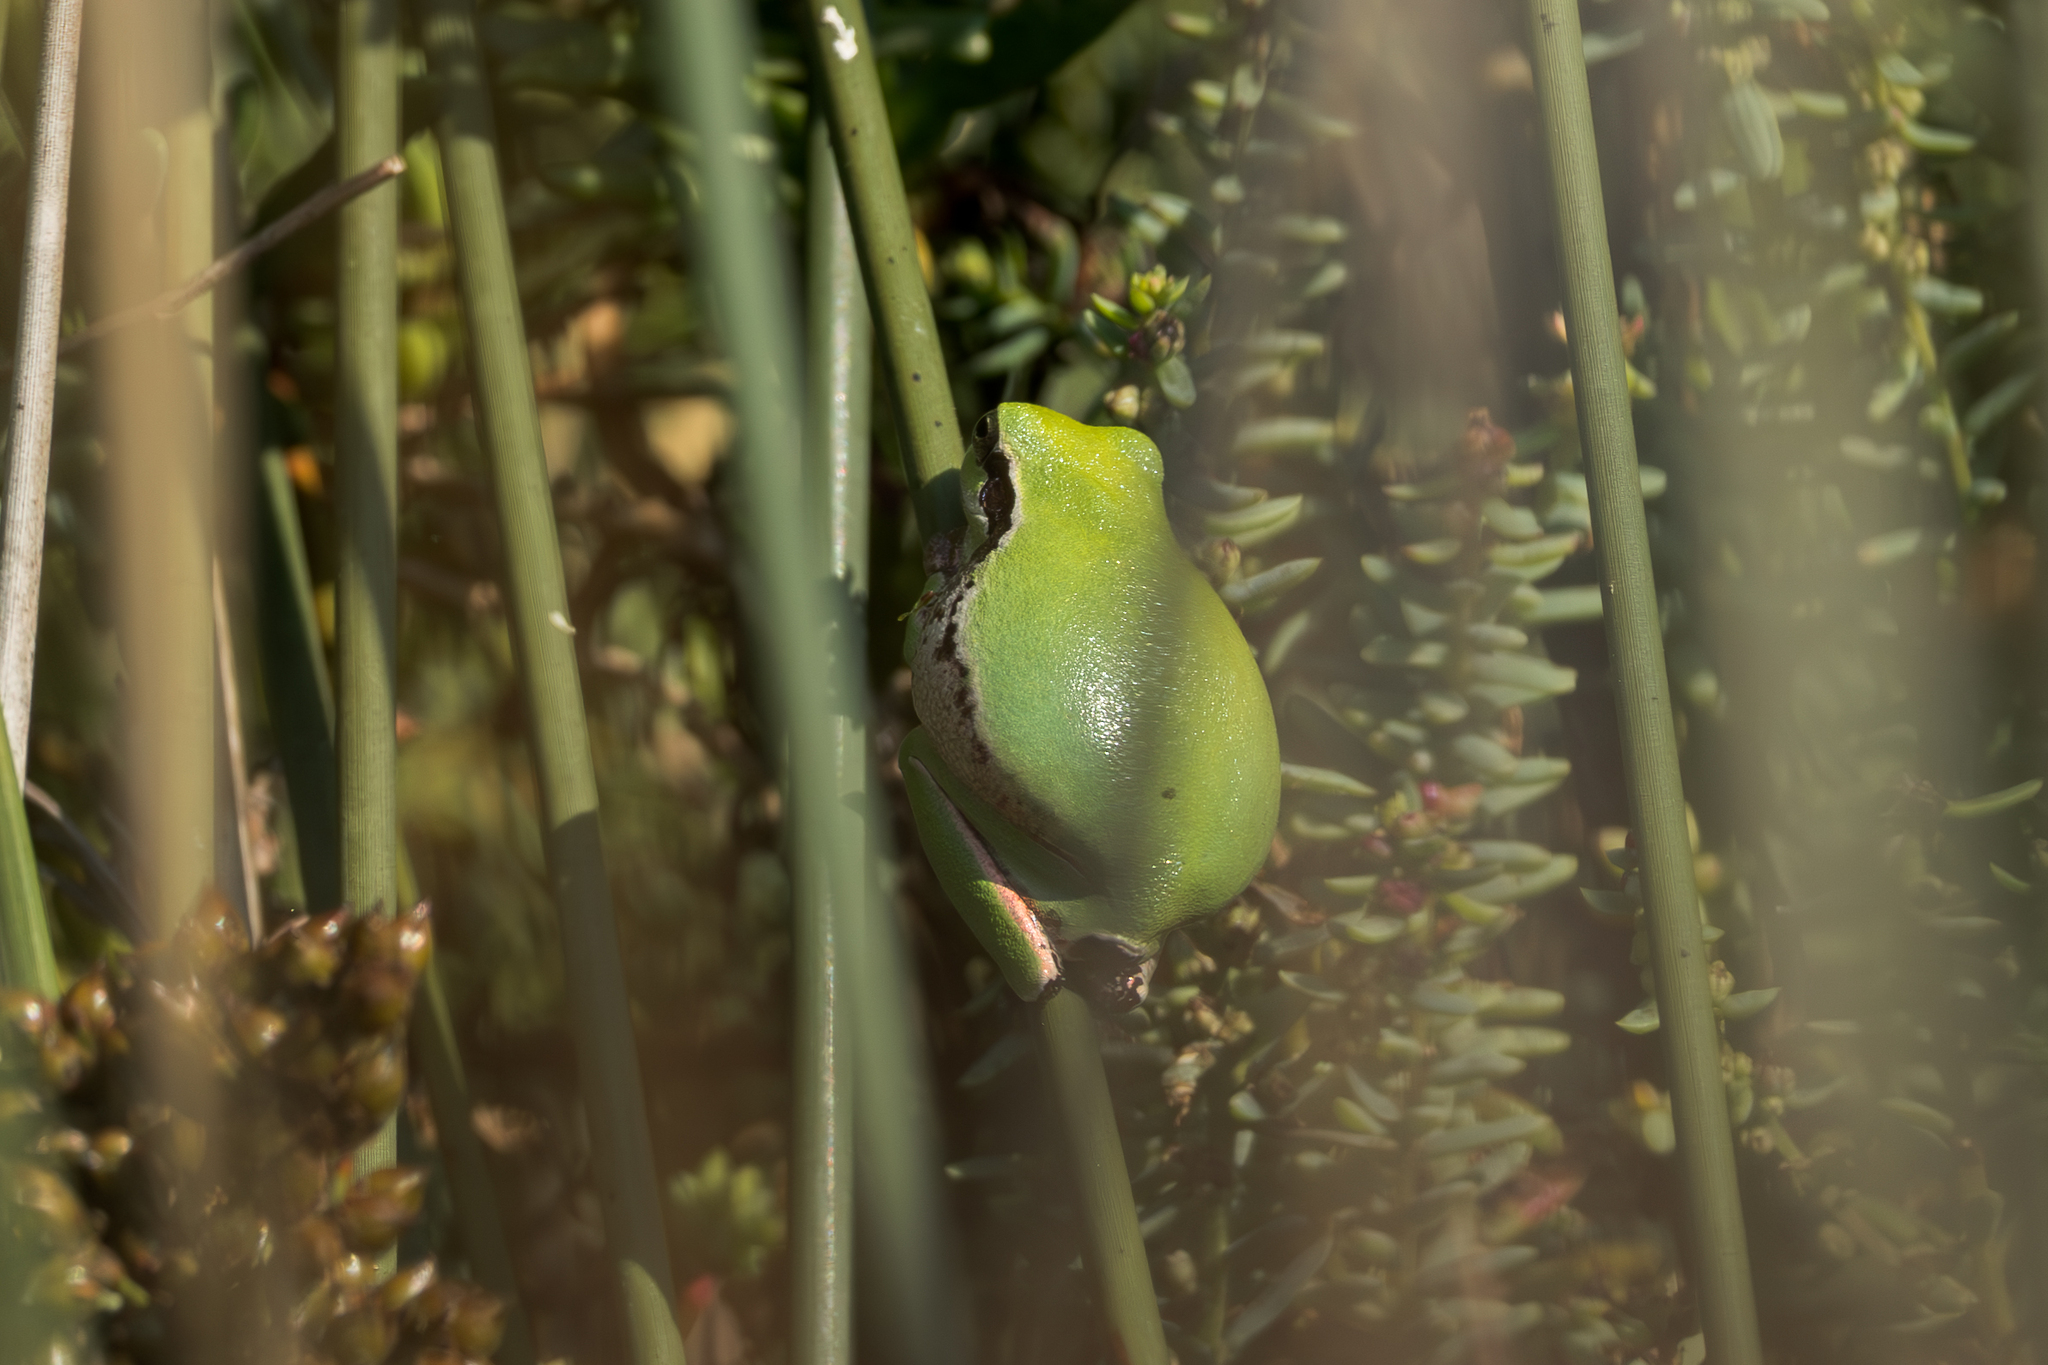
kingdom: Animalia
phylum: Chordata
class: Amphibia
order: Anura
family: Hylidae
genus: Hyla
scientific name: Hyla meridionalis
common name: Stripeless tree frog
